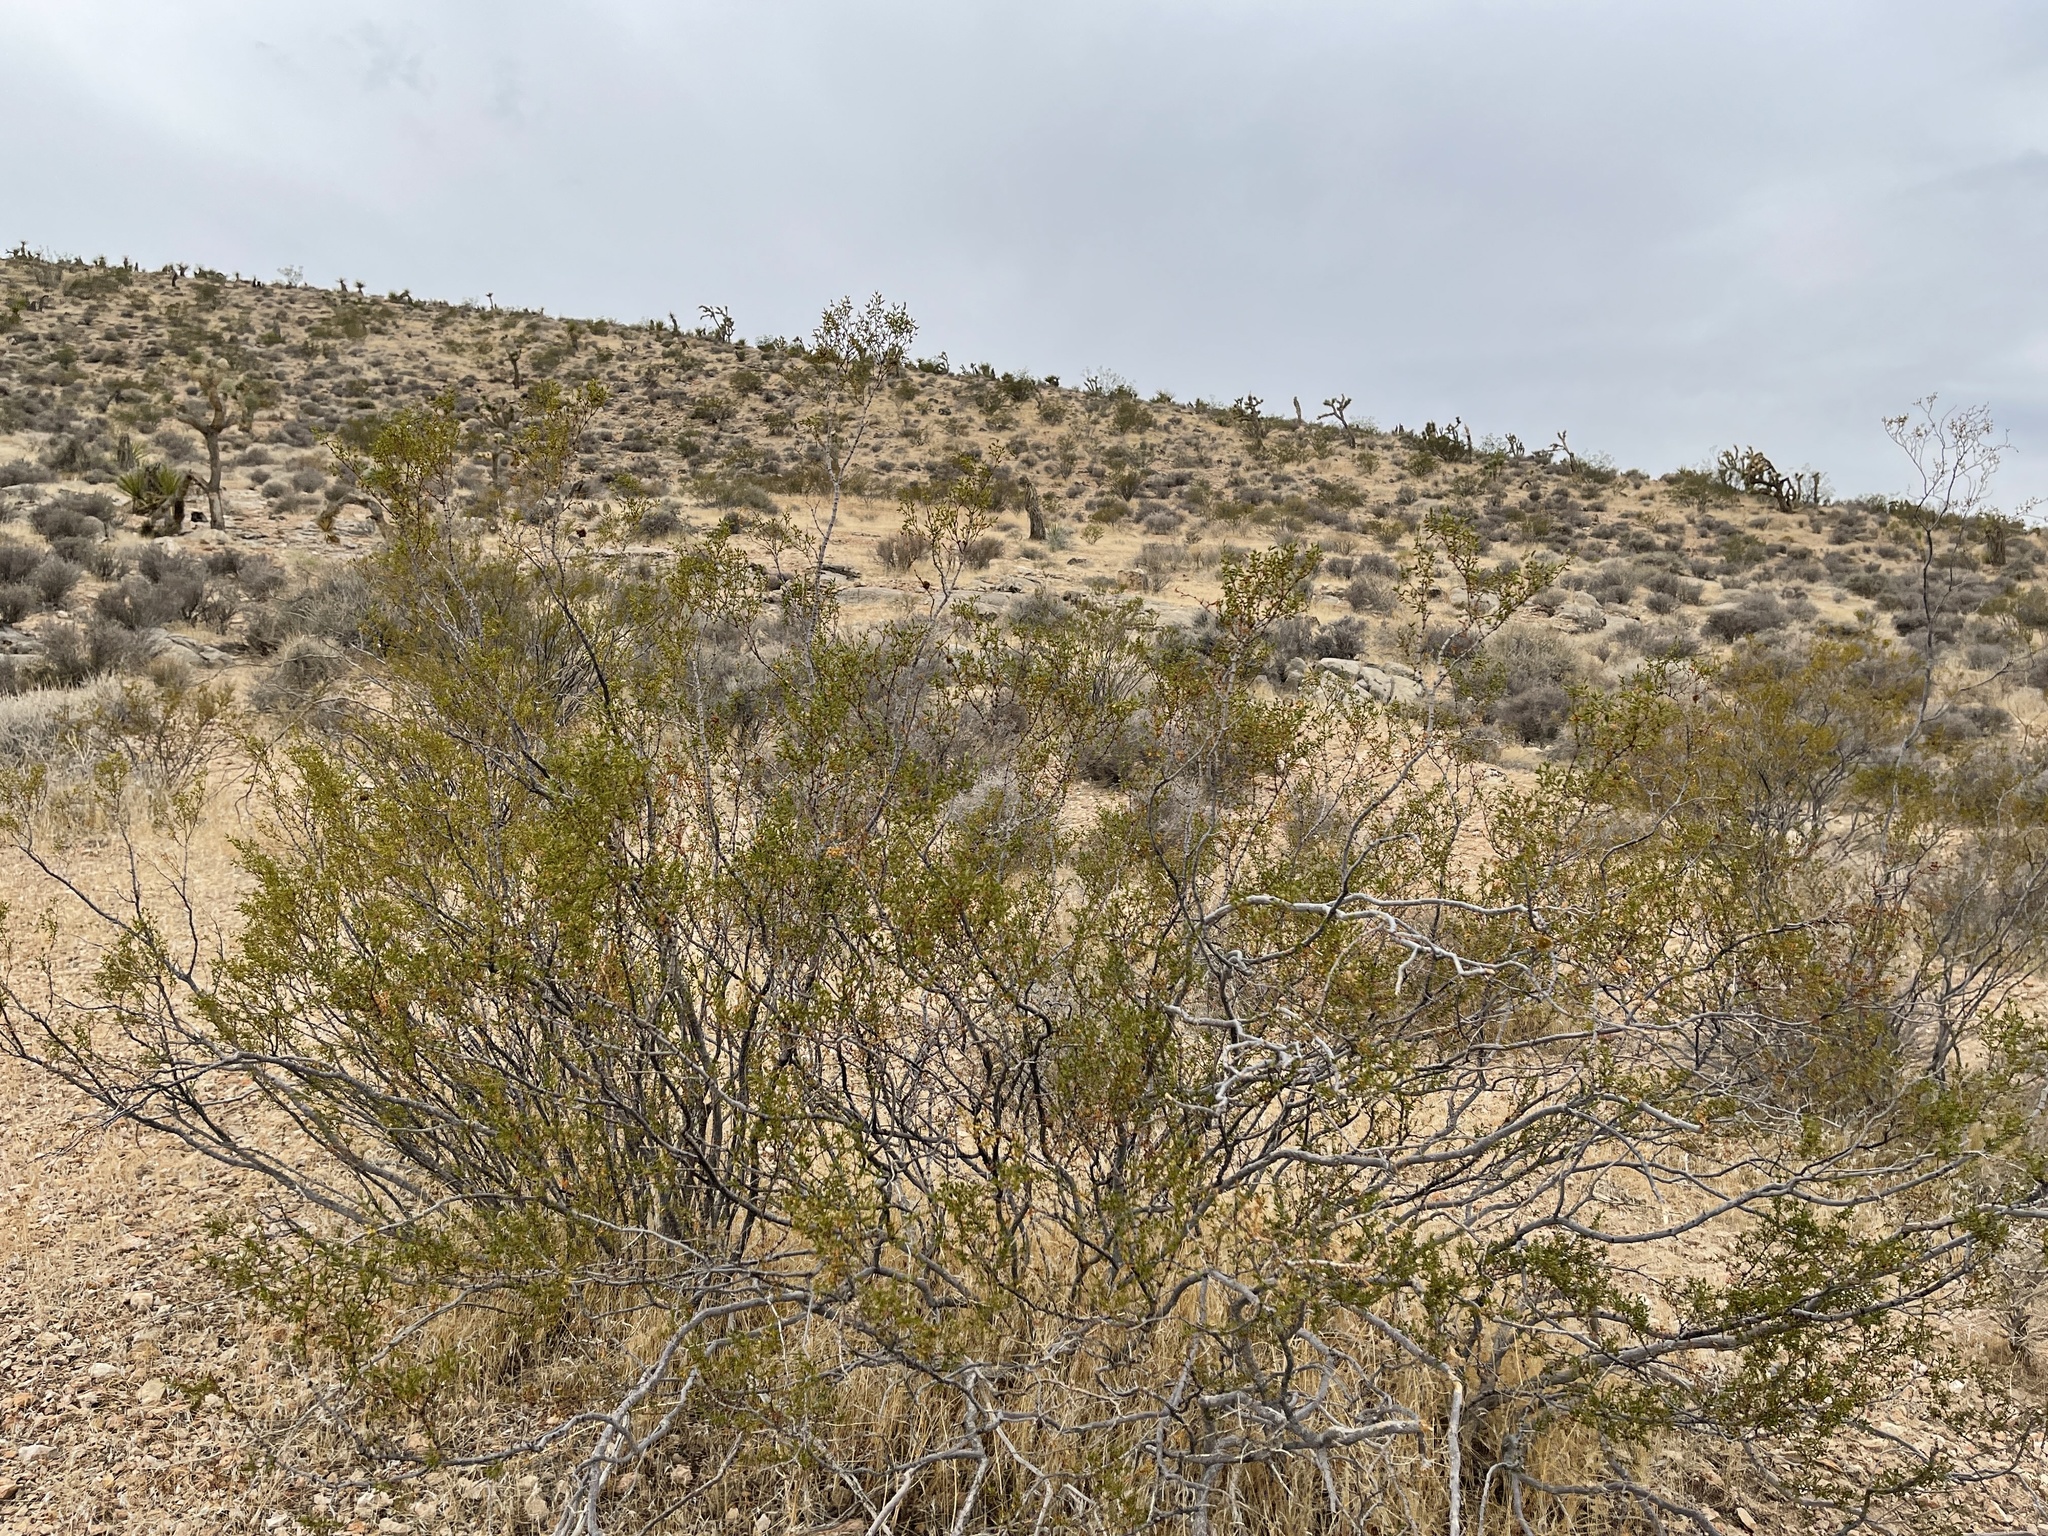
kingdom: Plantae
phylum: Tracheophyta
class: Magnoliopsida
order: Zygophyllales
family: Zygophyllaceae
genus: Larrea
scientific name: Larrea tridentata
